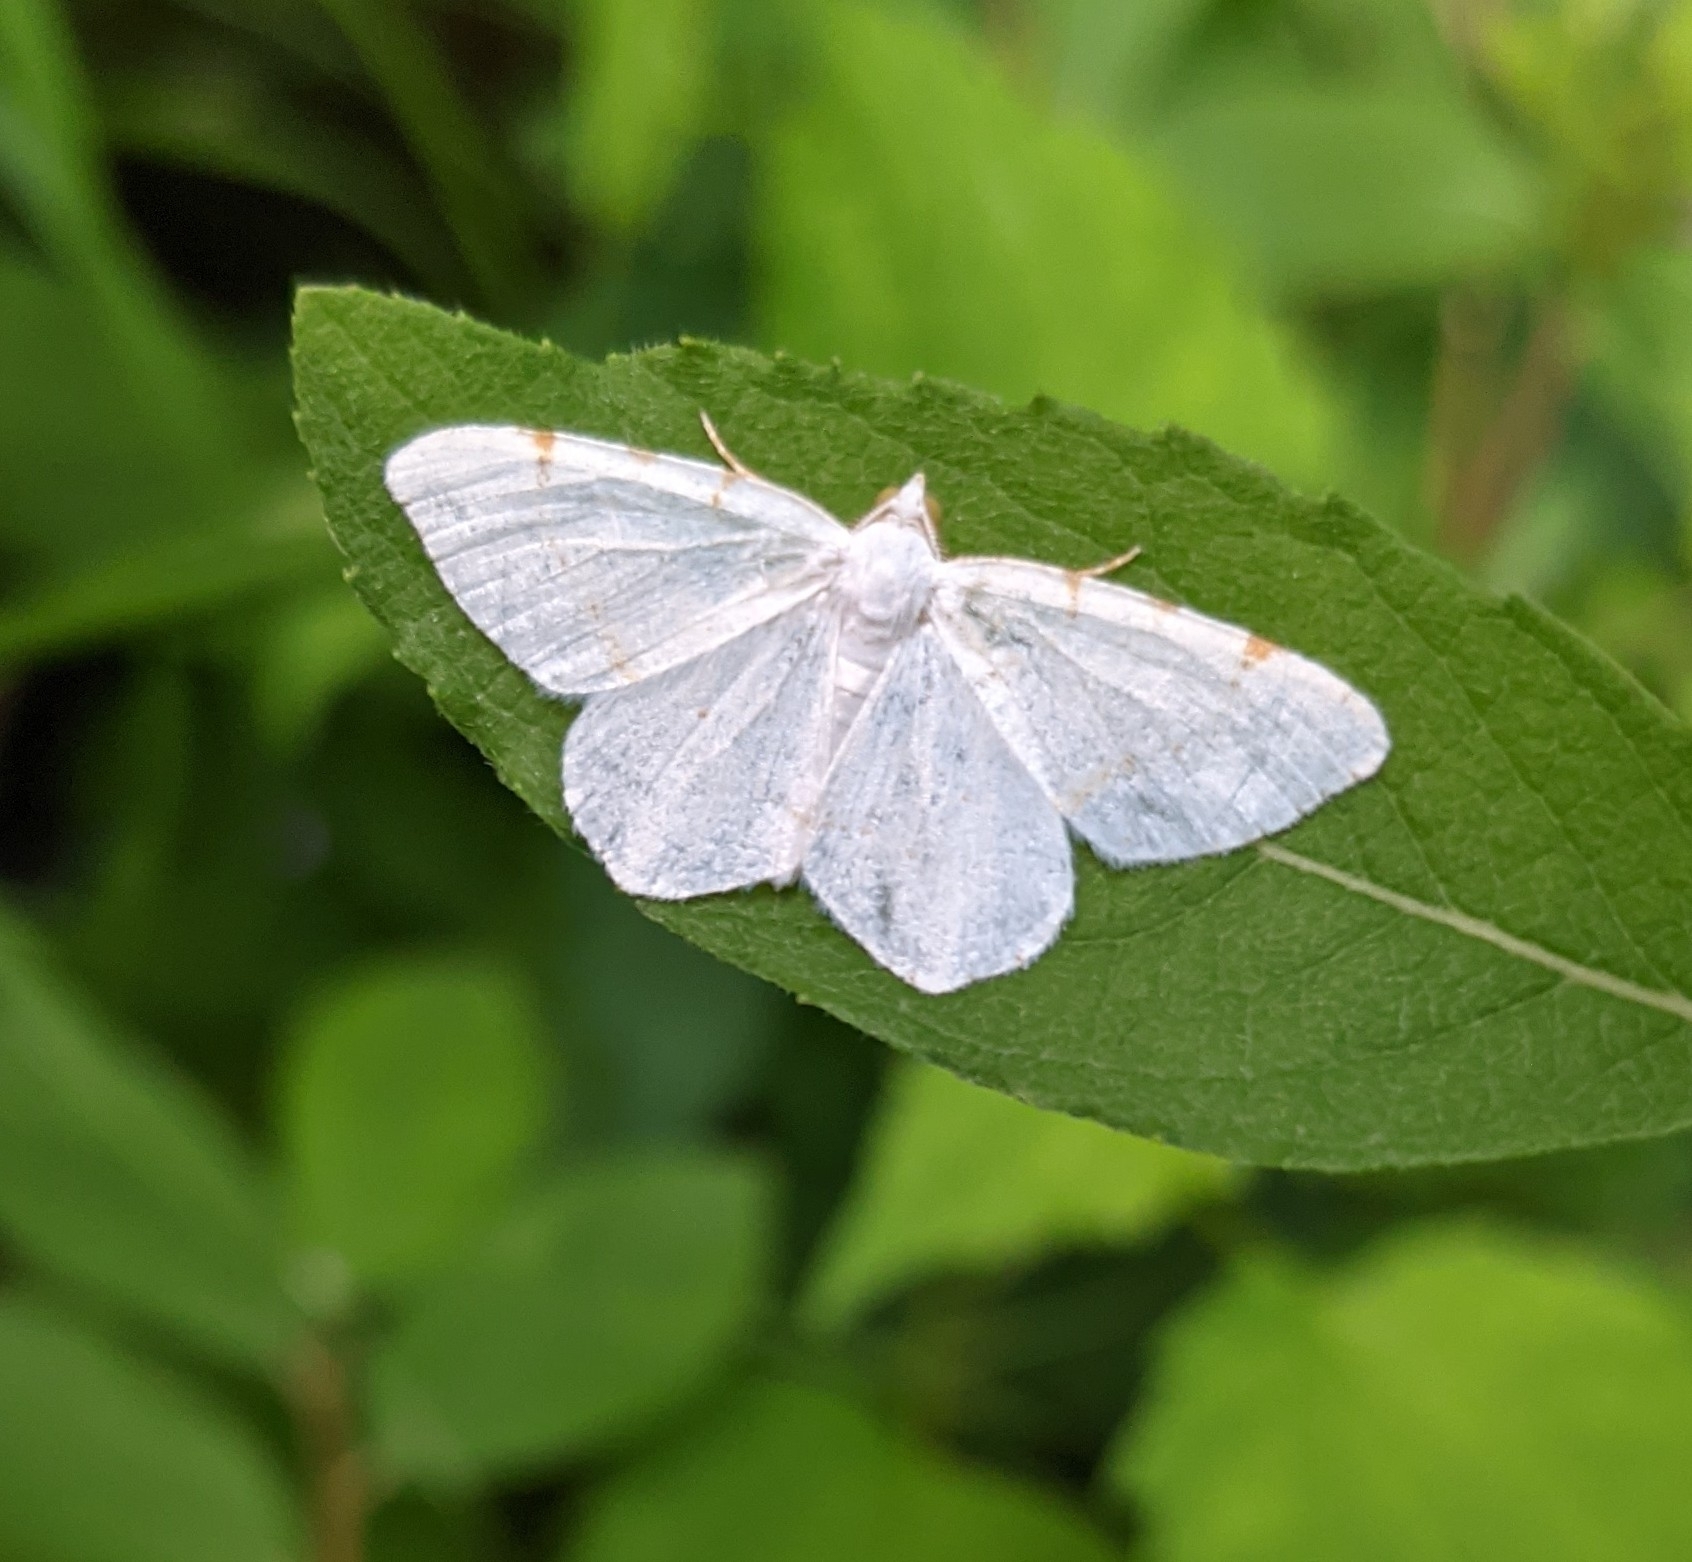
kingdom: Animalia
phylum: Arthropoda
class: Insecta
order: Lepidoptera
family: Geometridae
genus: Macaria
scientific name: Macaria pustularia
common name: Lesser maple spanworm moth
